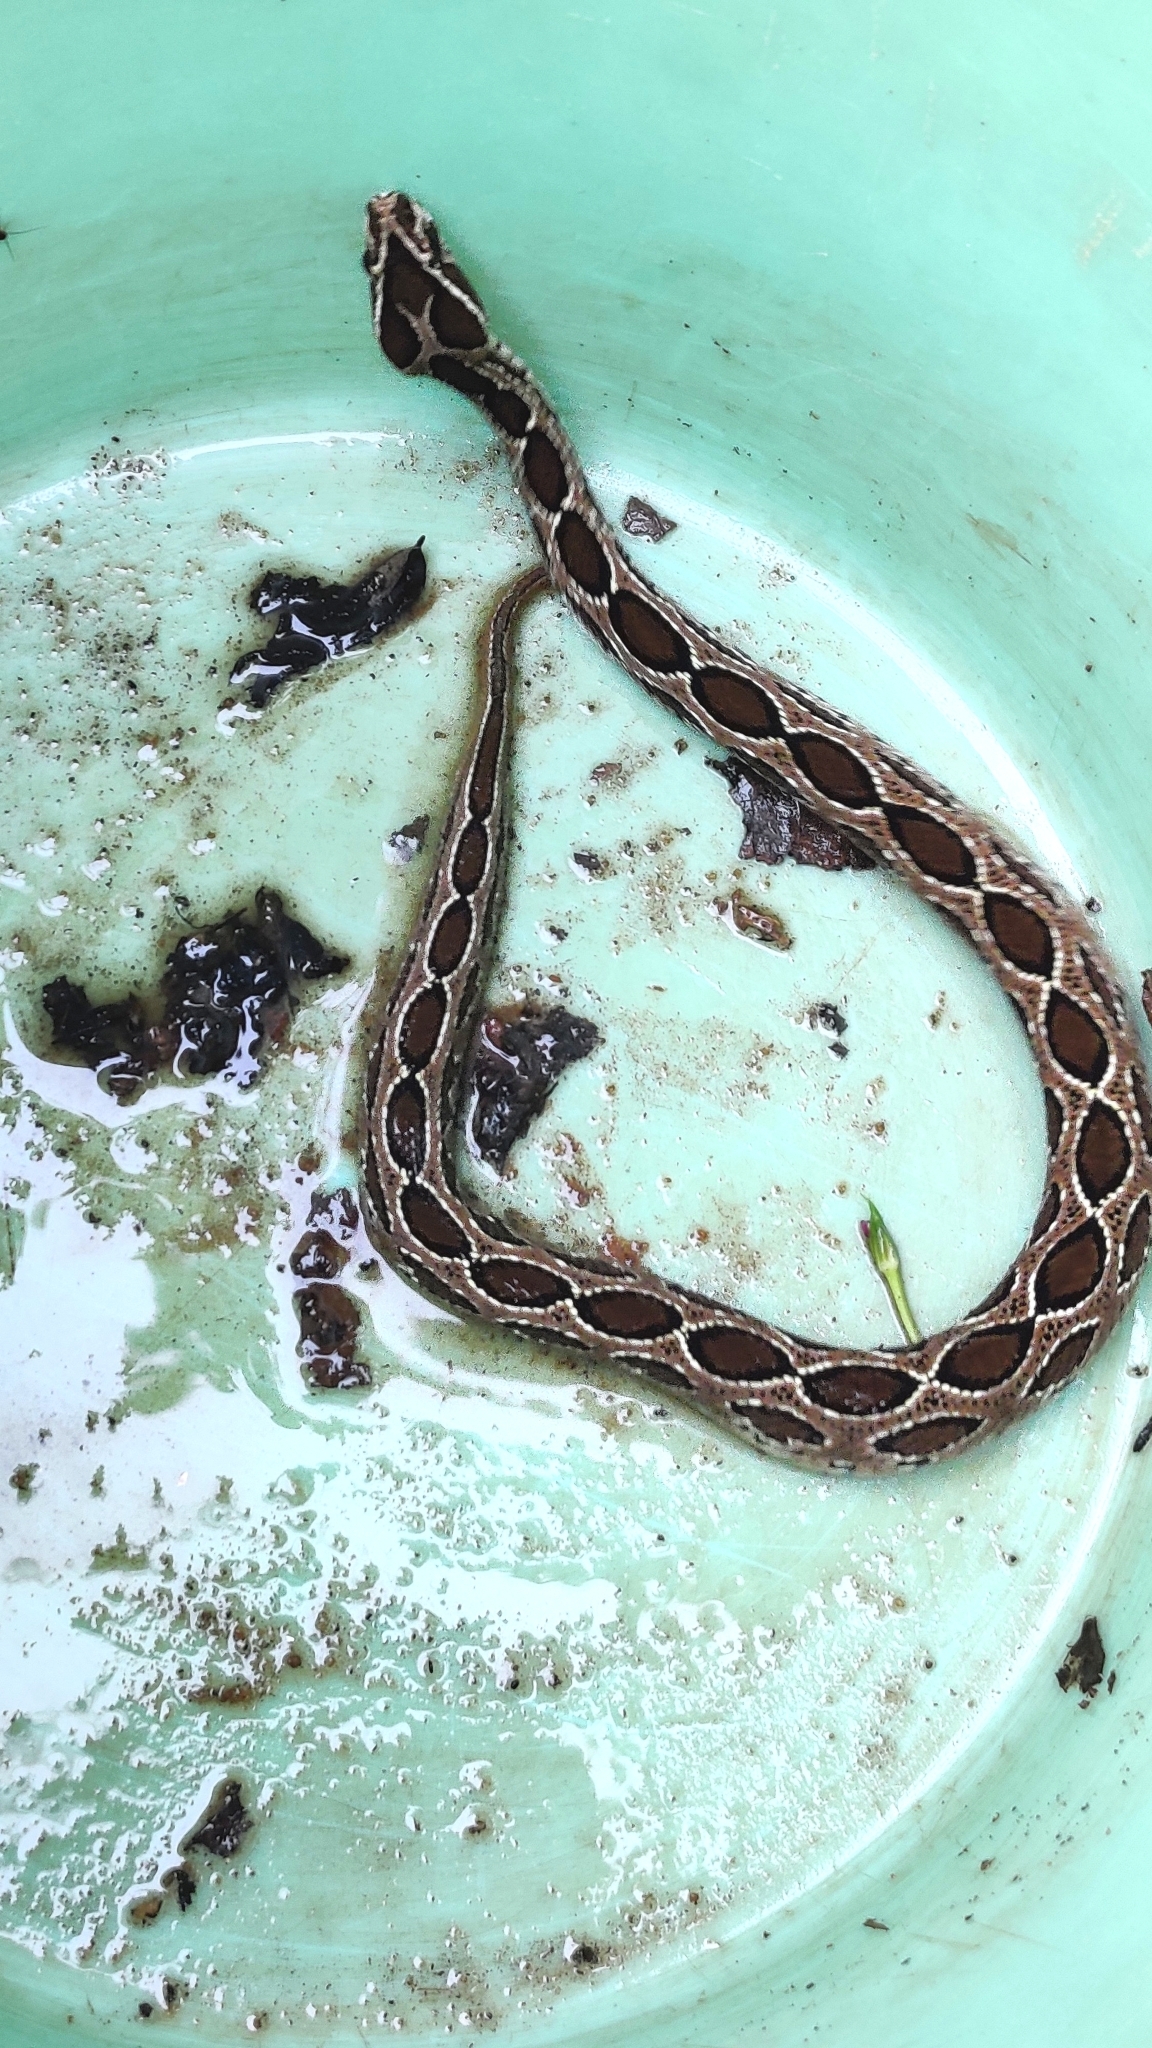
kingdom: Animalia
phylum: Chordata
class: Squamata
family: Viperidae
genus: Daboia
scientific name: Daboia russelii
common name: Western russel’s viper
